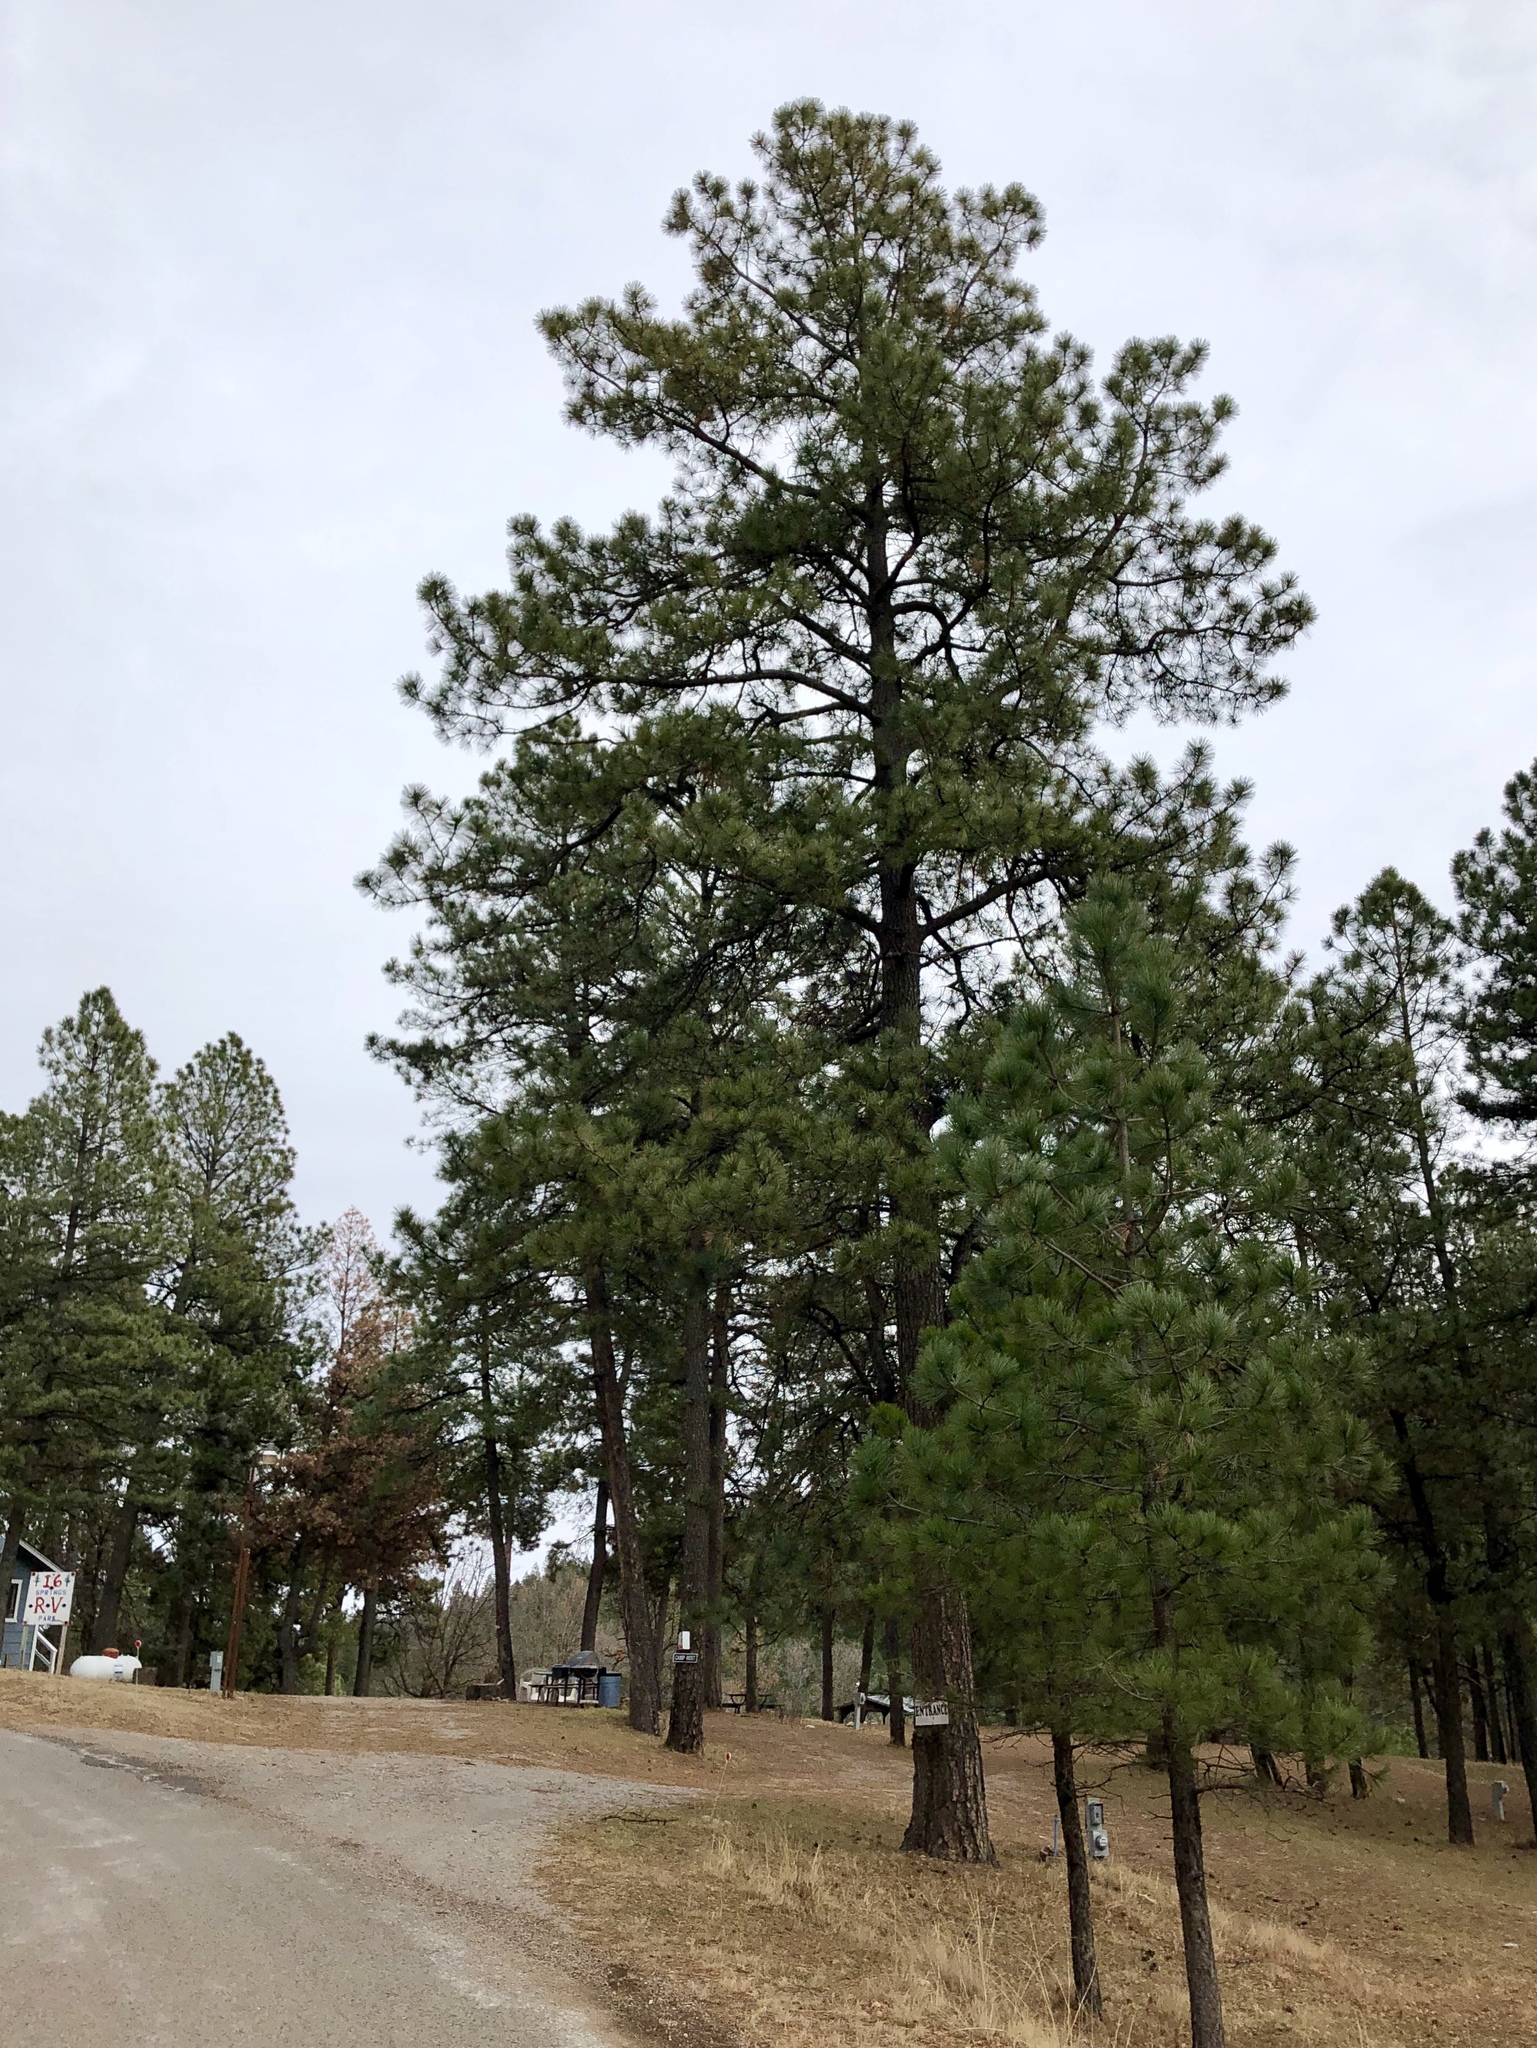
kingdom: Plantae
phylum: Tracheophyta
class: Pinopsida
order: Pinales
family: Pinaceae
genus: Pinus
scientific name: Pinus ponderosa
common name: Western yellow-pine
